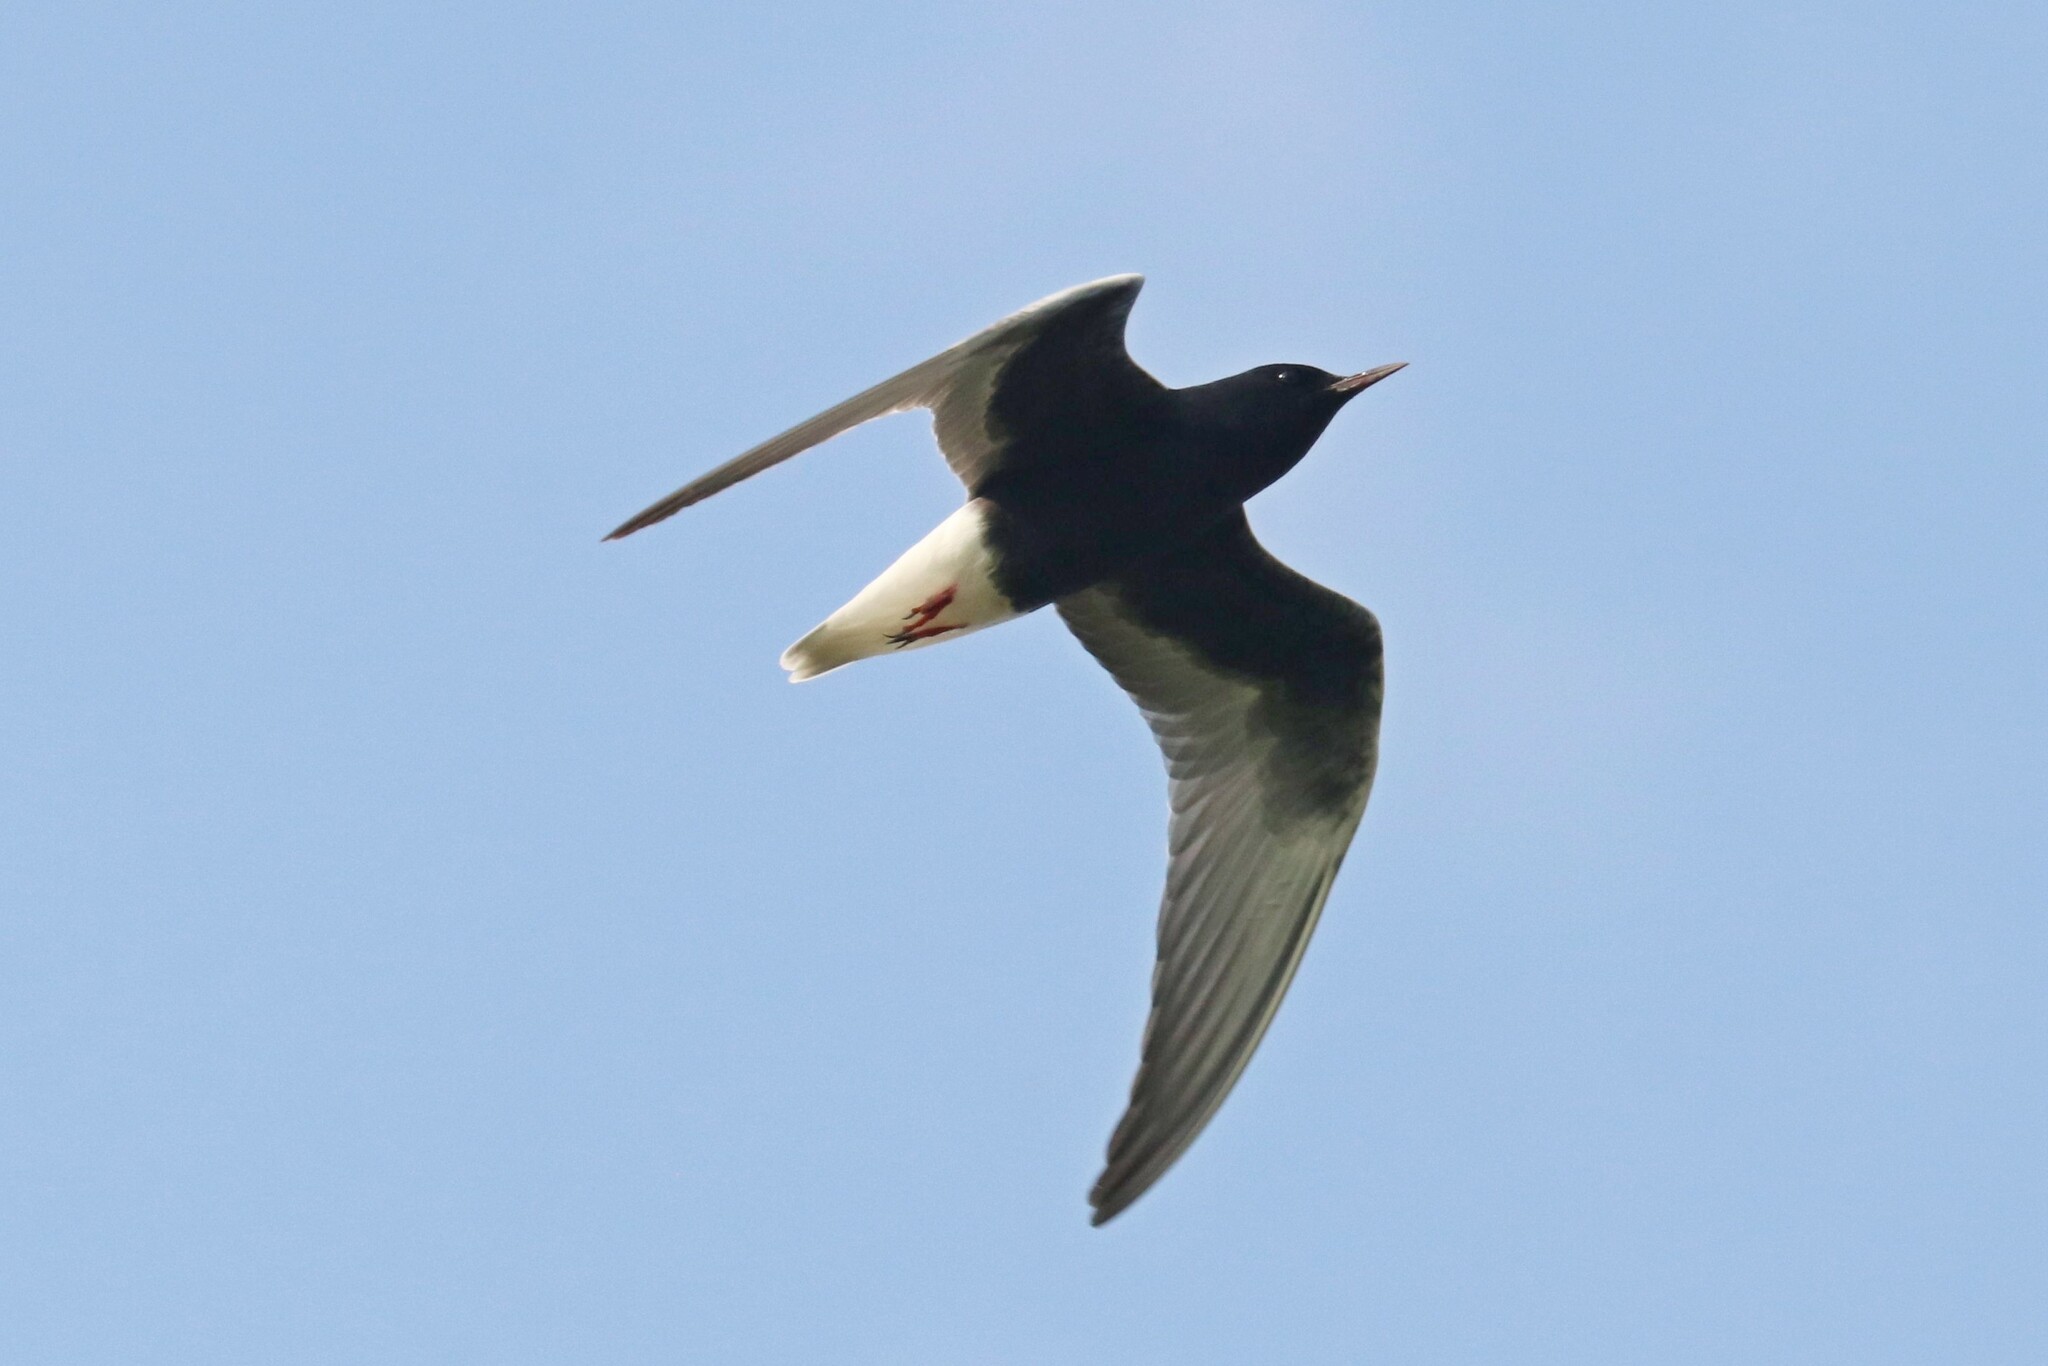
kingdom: Animalia
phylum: Chordata
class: Aves
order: Charadriiformes
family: Laridae
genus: Chlidonias
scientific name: Chlidonias leucopterus
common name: White-winged tern
